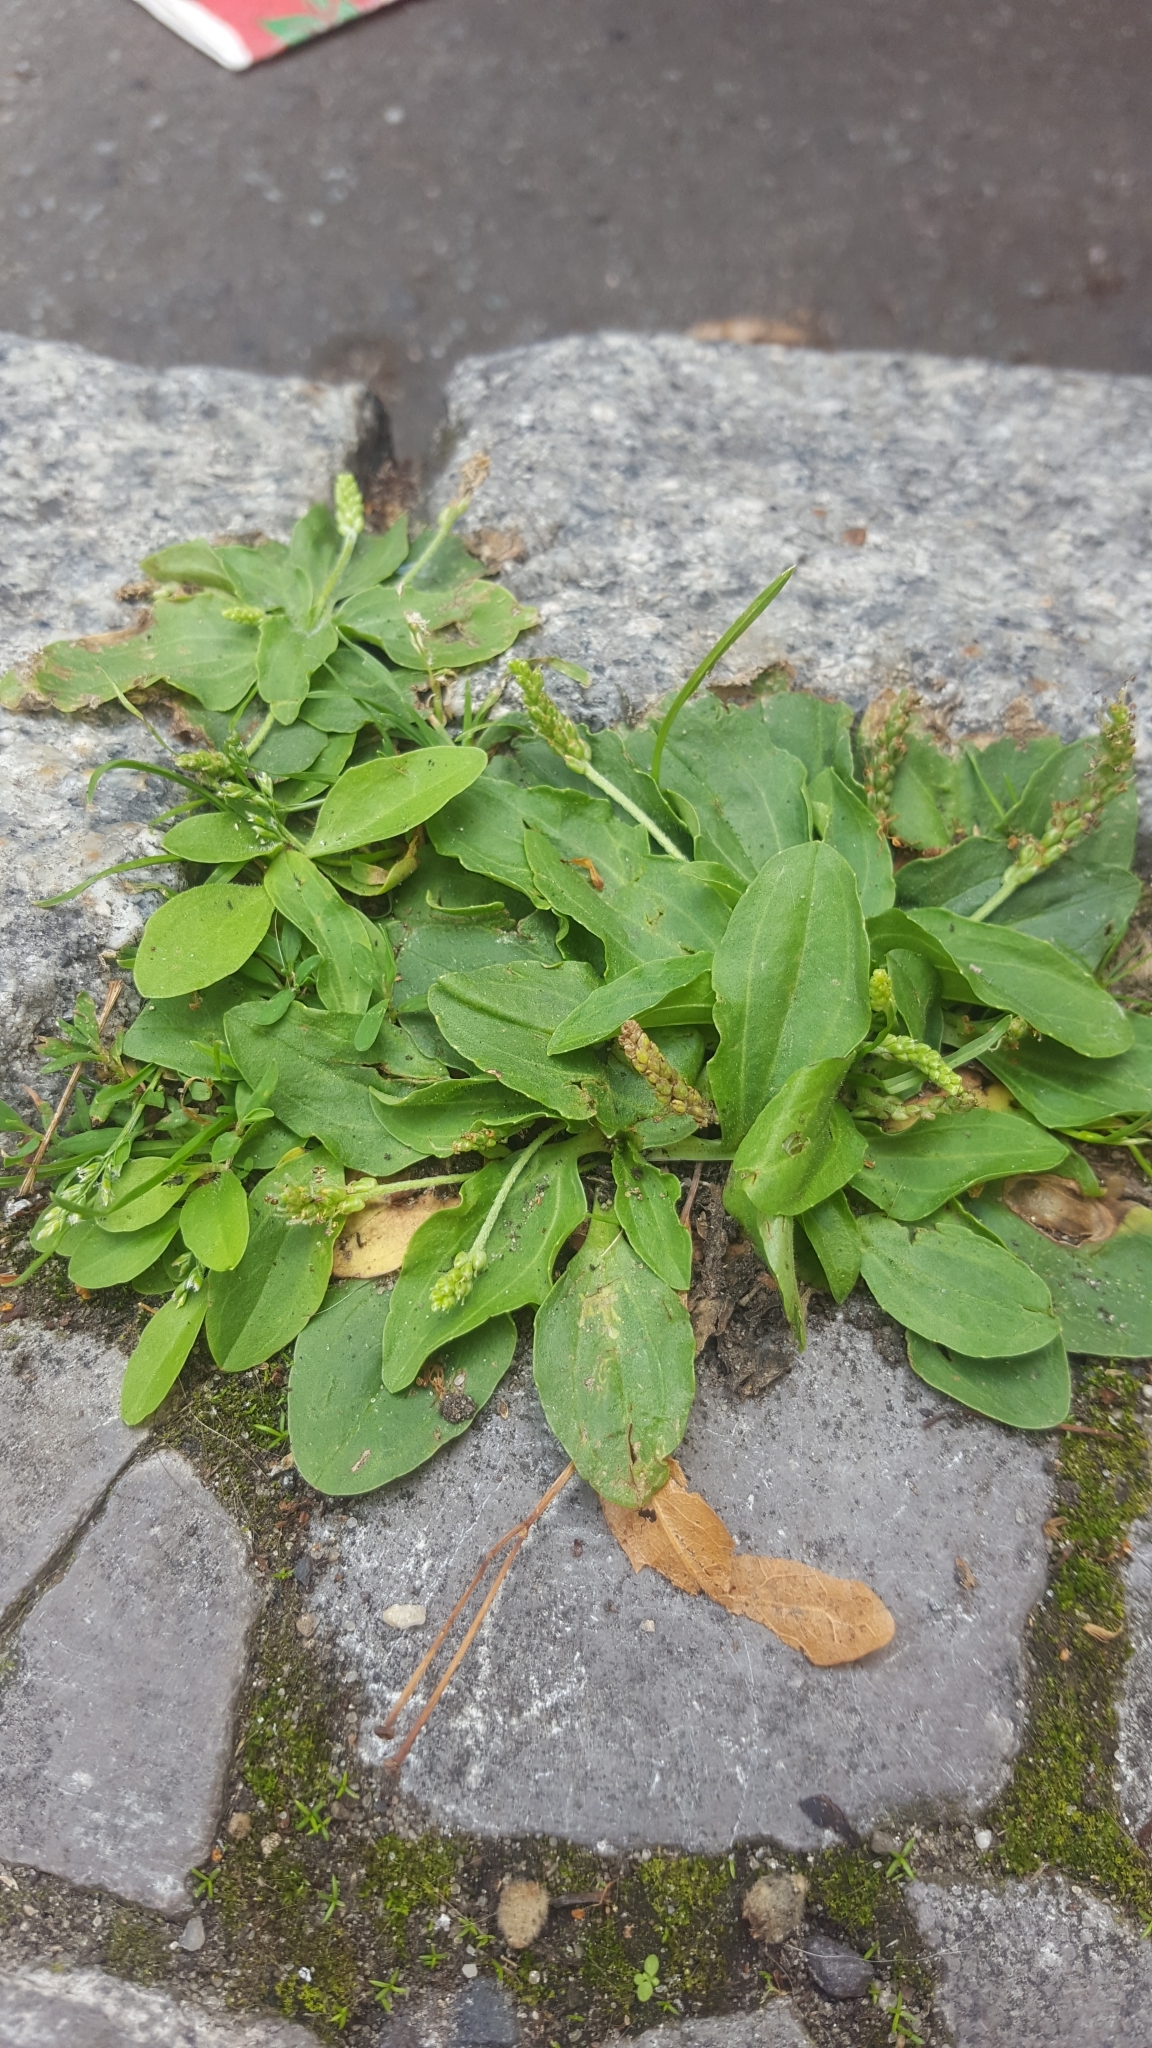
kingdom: Plantae
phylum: Tracheophyta
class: Magnoliopsida
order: Lamiales
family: Plantaginaceae
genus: Plantago
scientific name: Plantago major
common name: Common plantain
